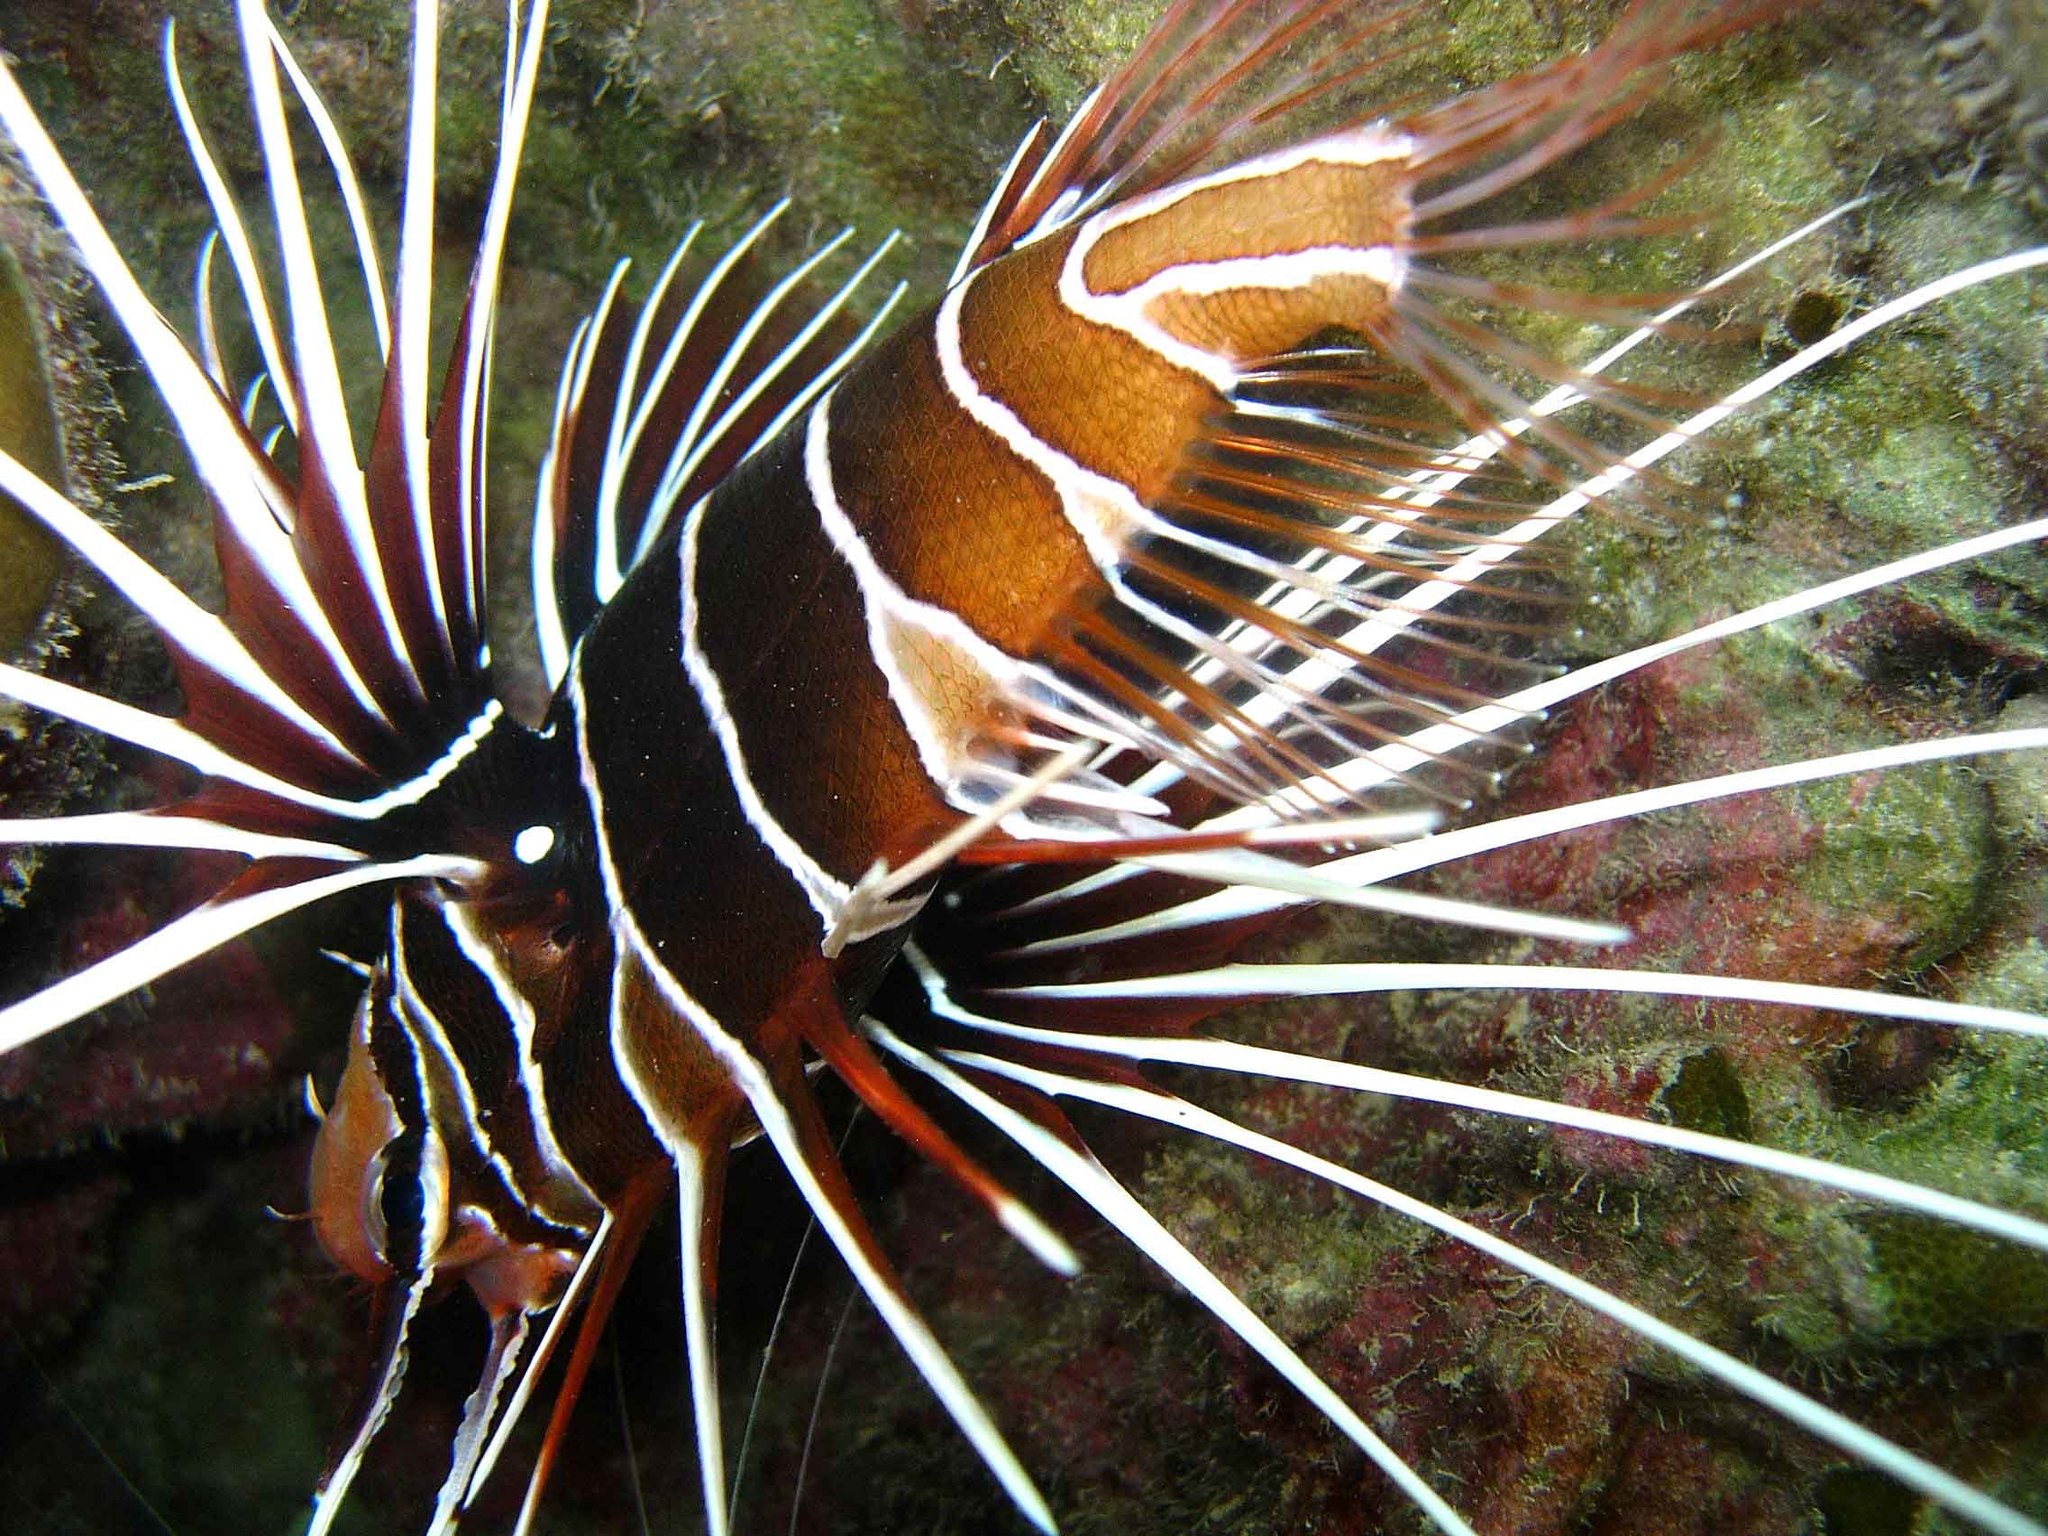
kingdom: Animalia
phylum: Chordata
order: Scorpaeniformes
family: Scorpaenidae
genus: Pterois
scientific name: Pterois radiata
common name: Radial firefish
